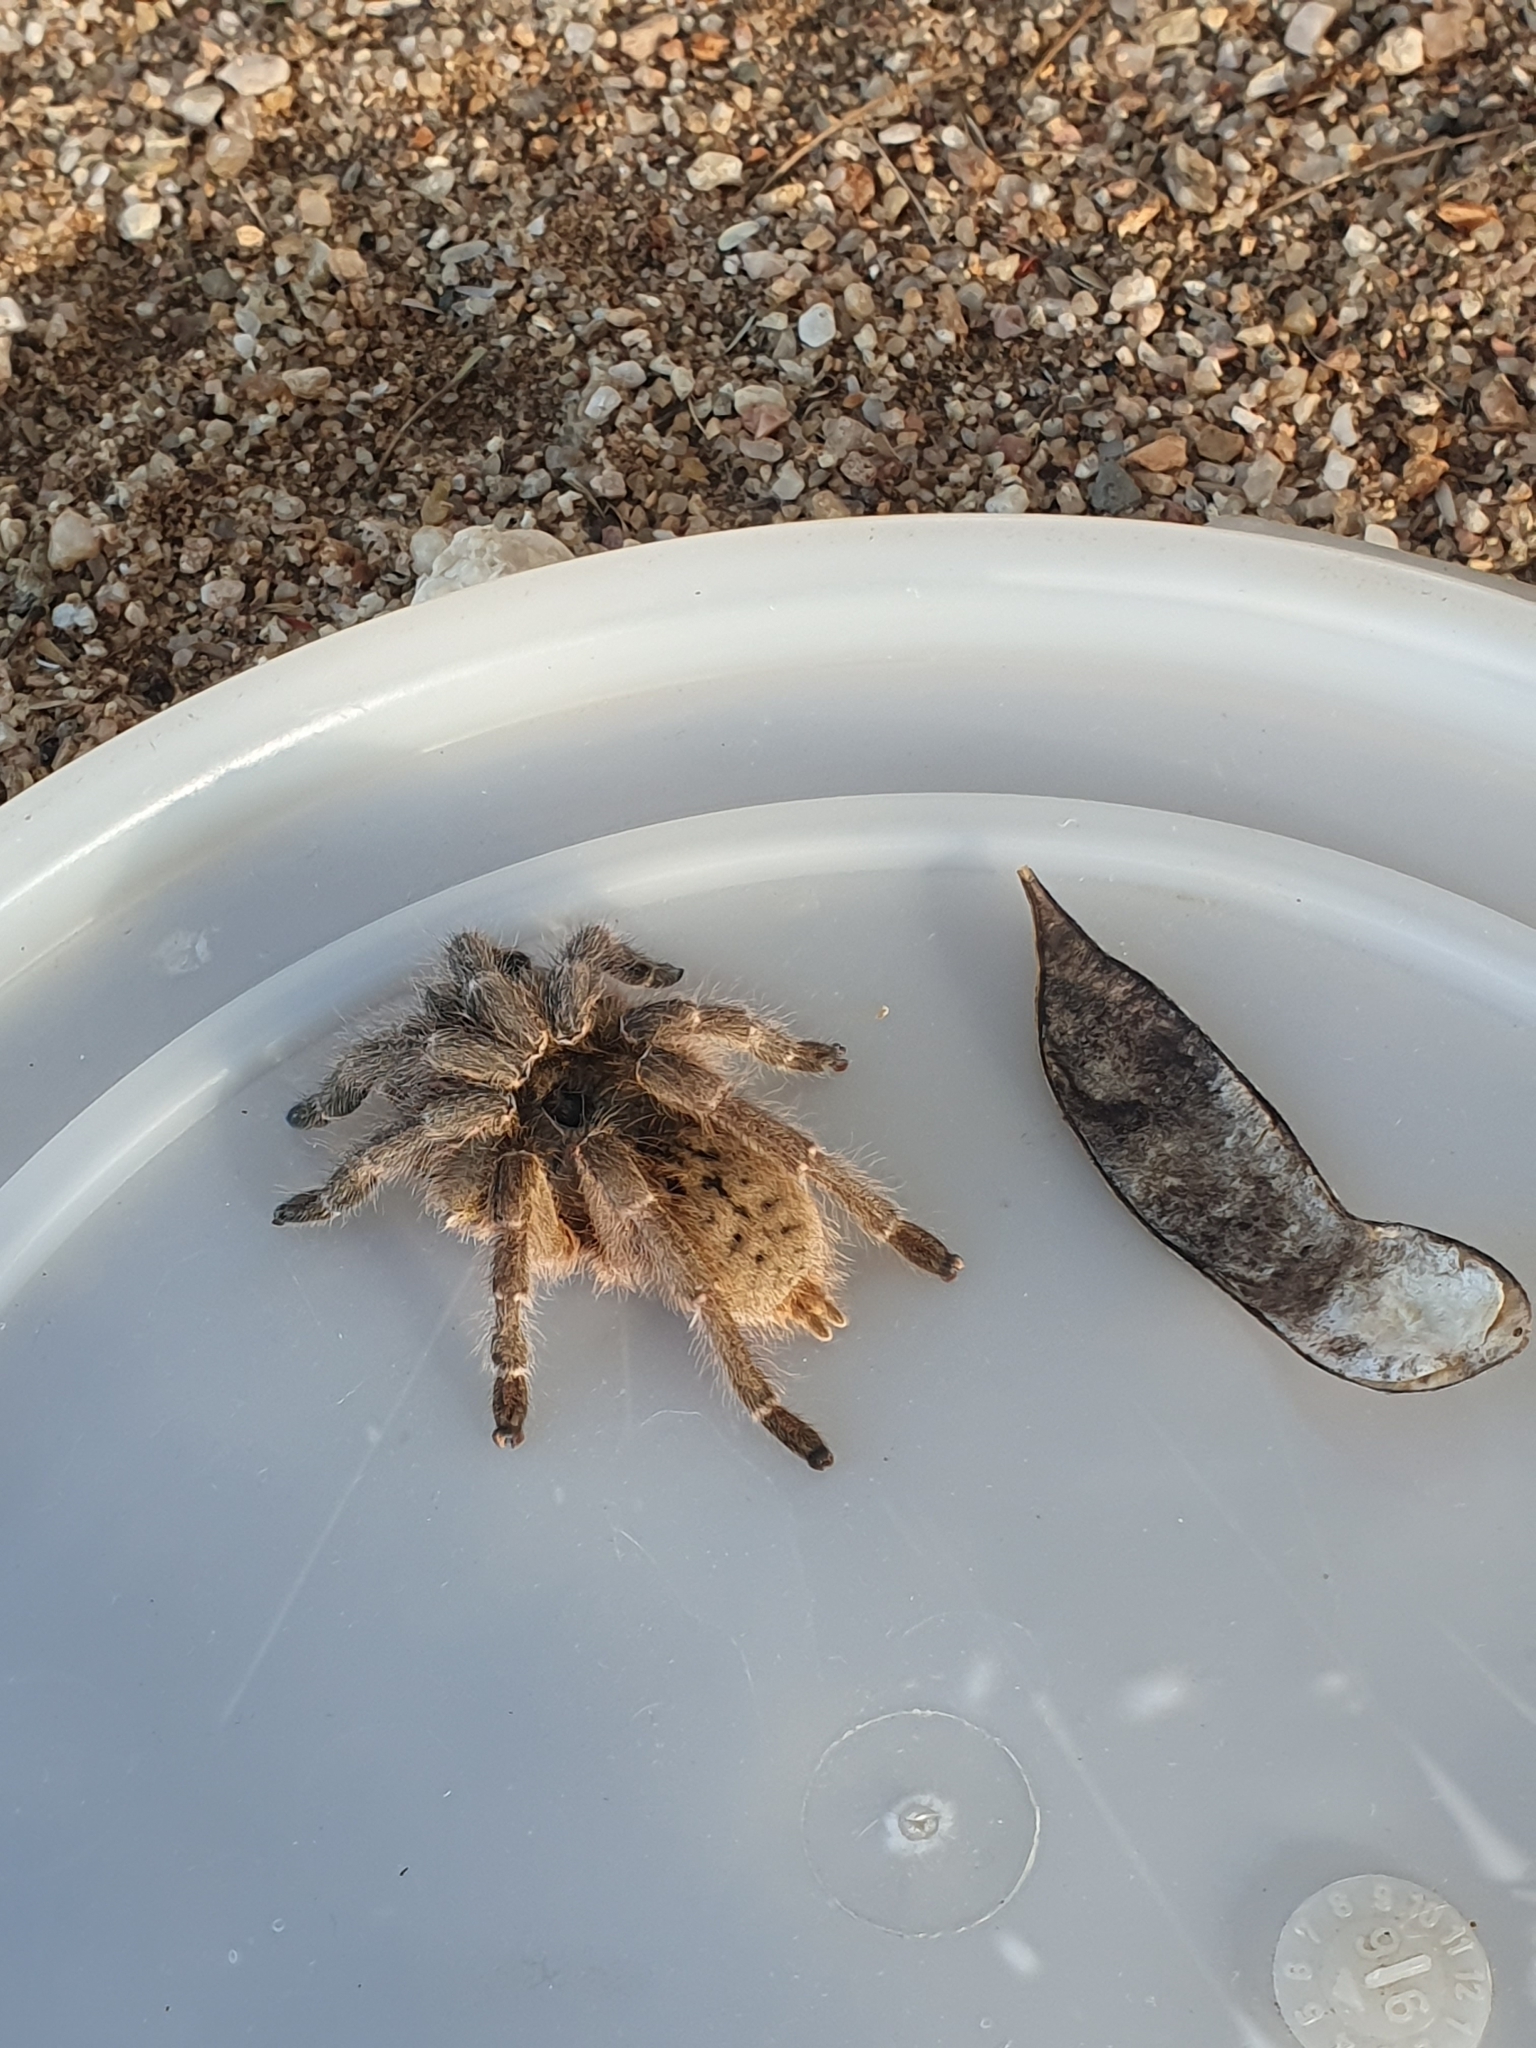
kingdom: Animalia
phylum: Arthropoda
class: Arachnida
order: Araneae
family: Theraphosidae
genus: Ceratogyrus
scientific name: Ceratogyrus sanderi
